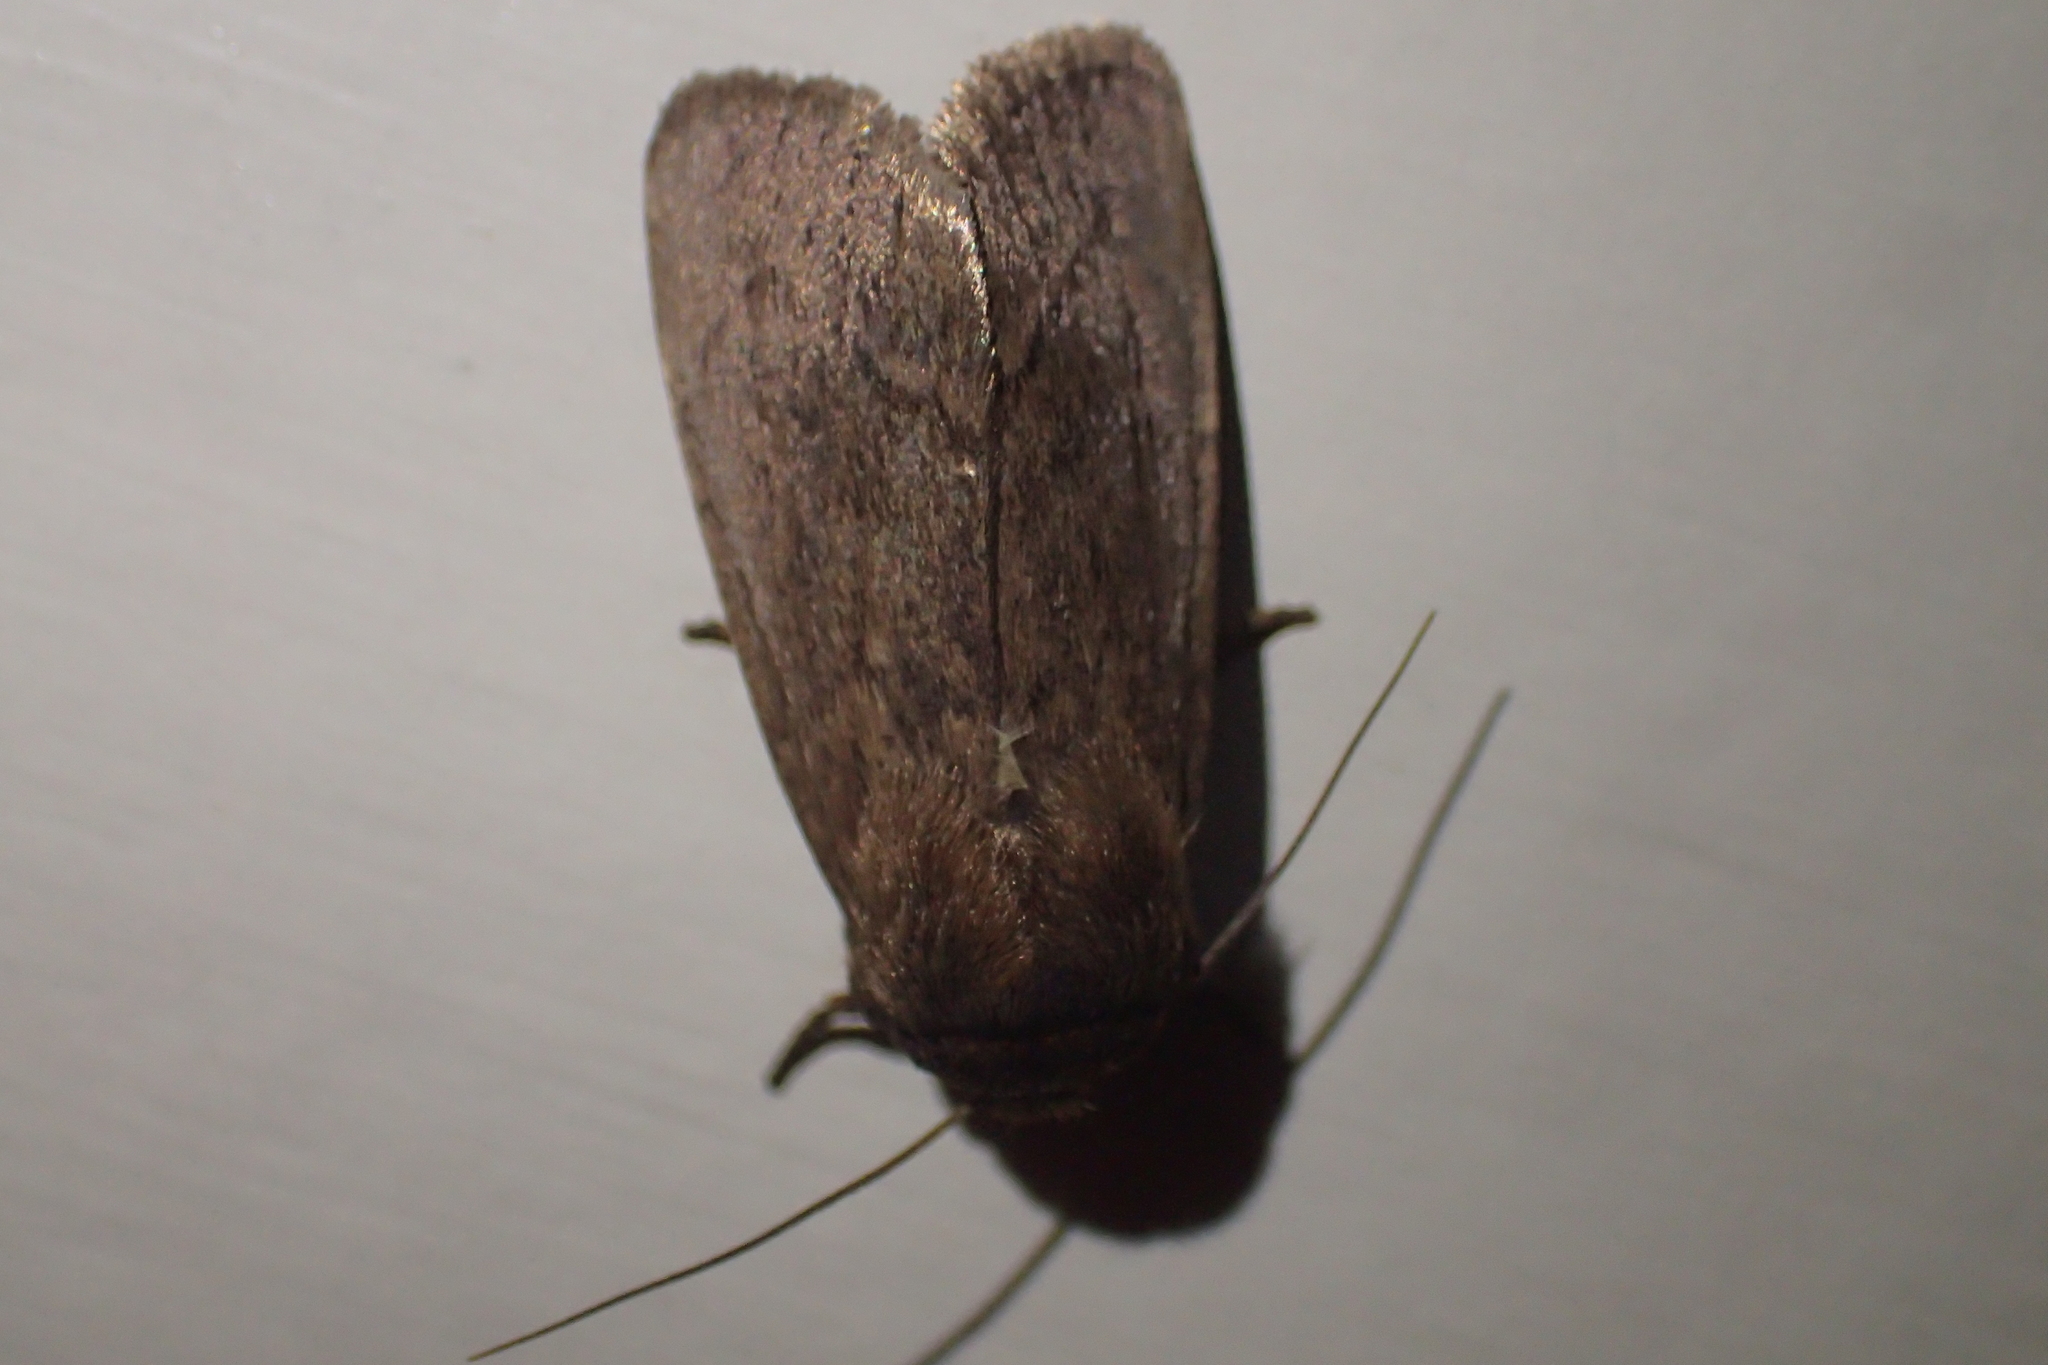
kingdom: Animalia
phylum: Arthropoda
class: Insecta
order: Lepidoptera
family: Noctuidae
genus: Bityla
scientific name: Bityla defigurata
